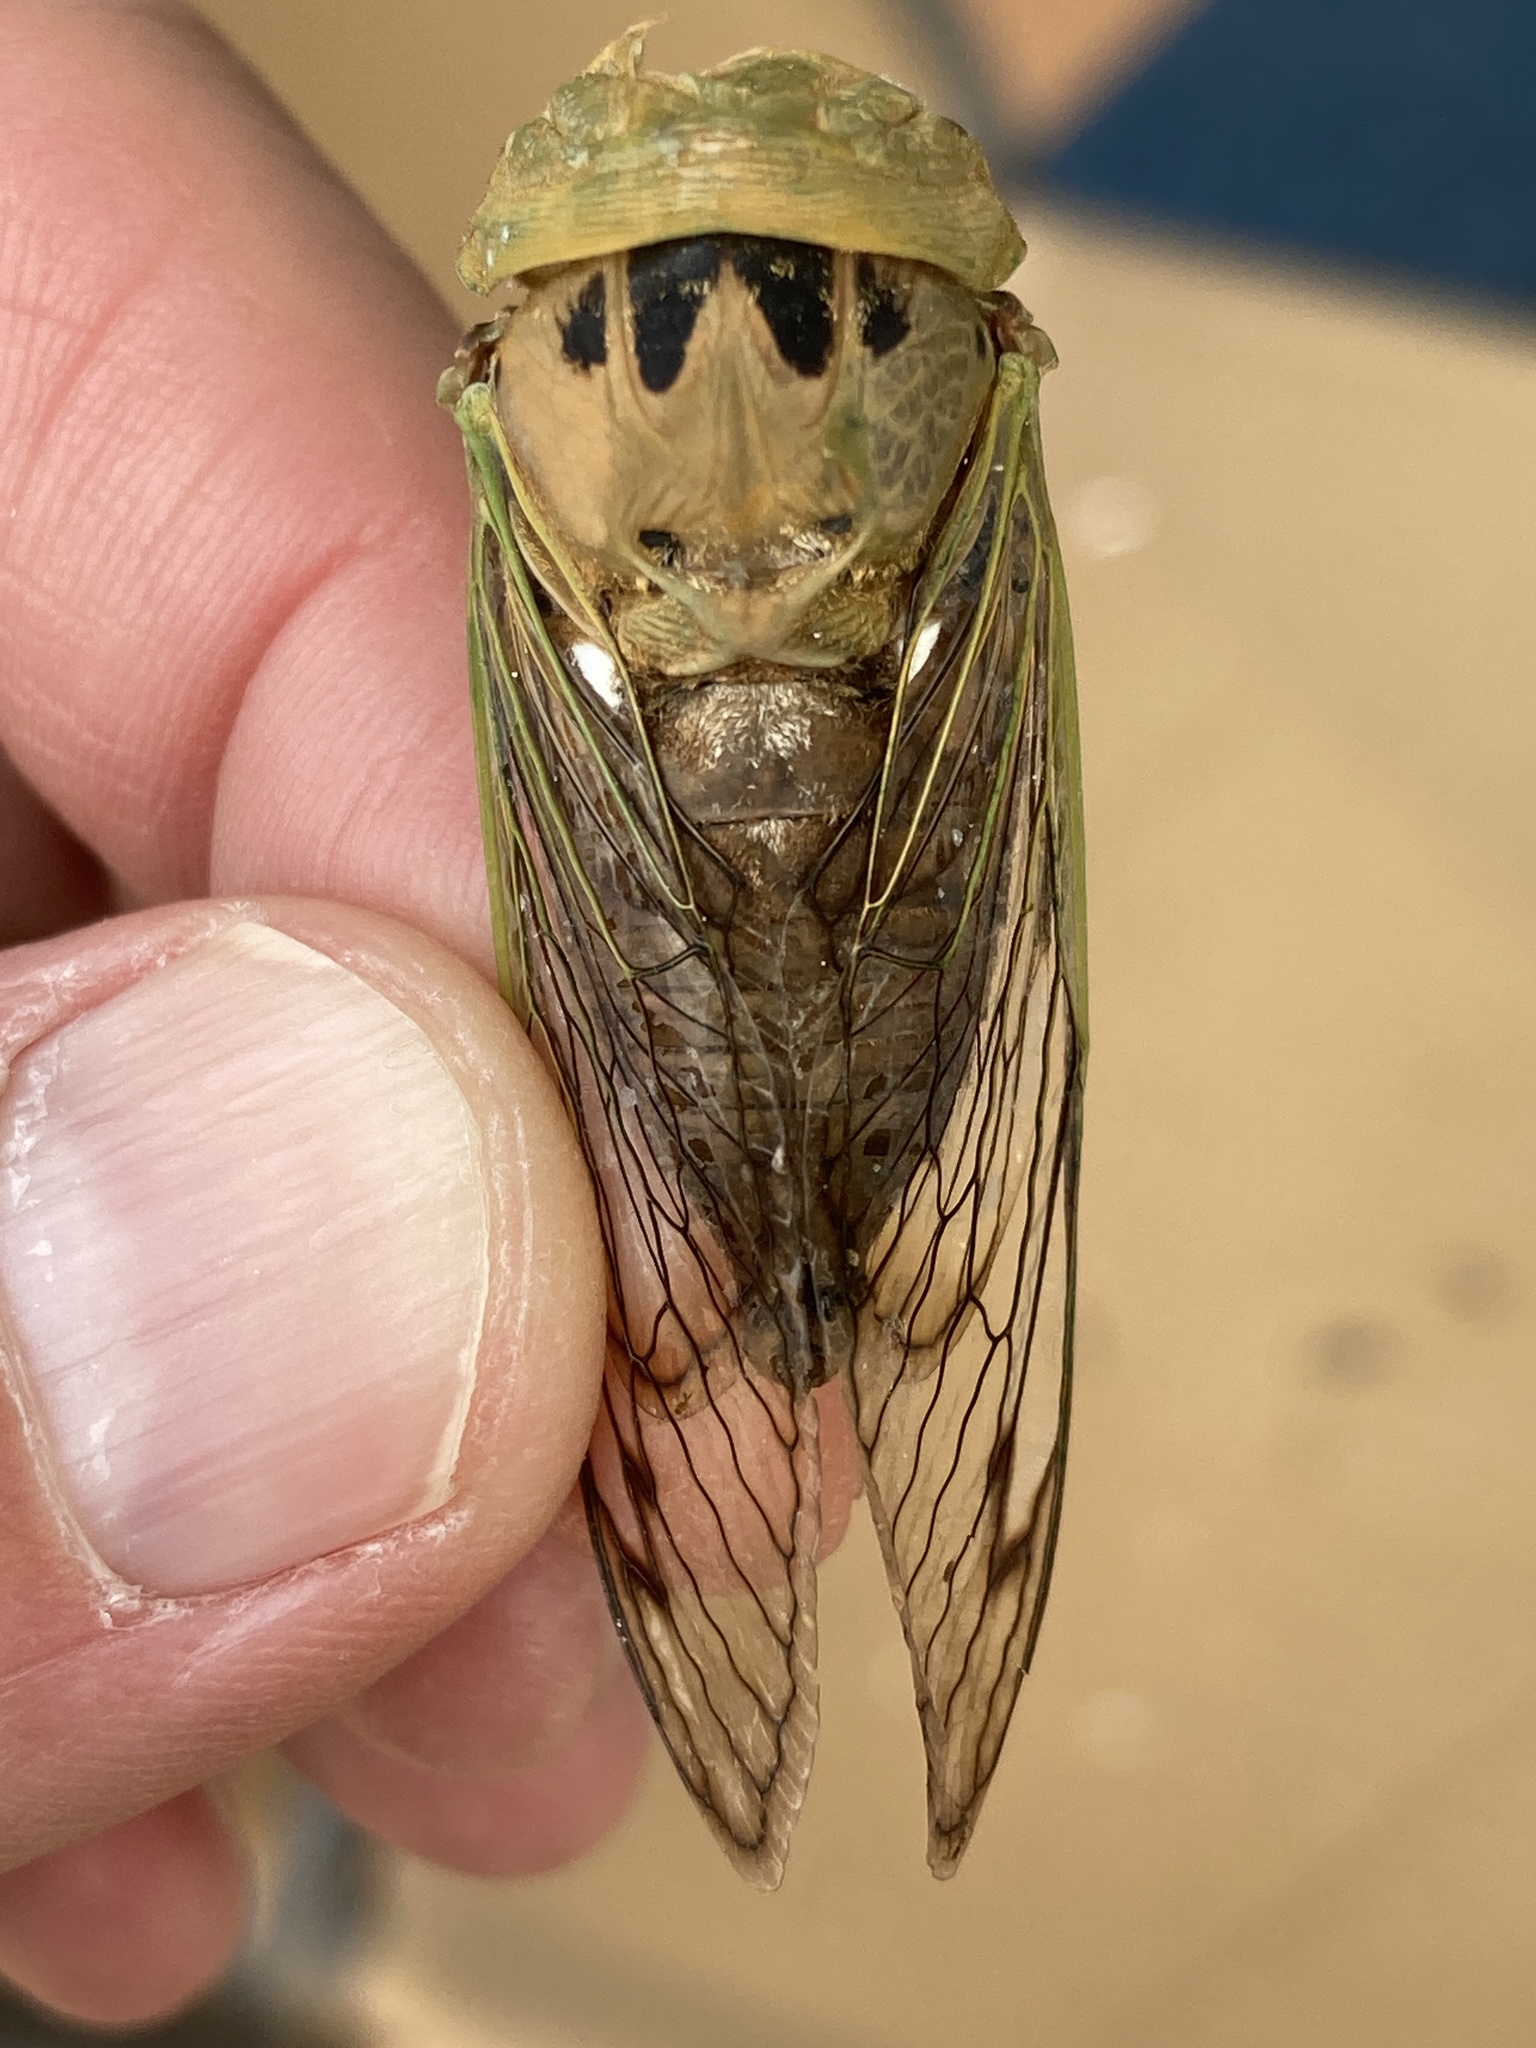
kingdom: Animalia
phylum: Arthropoda
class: Insecta
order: Hemiptera
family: Cicadidae
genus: Neotibicen
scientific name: Neotibicen superbus
